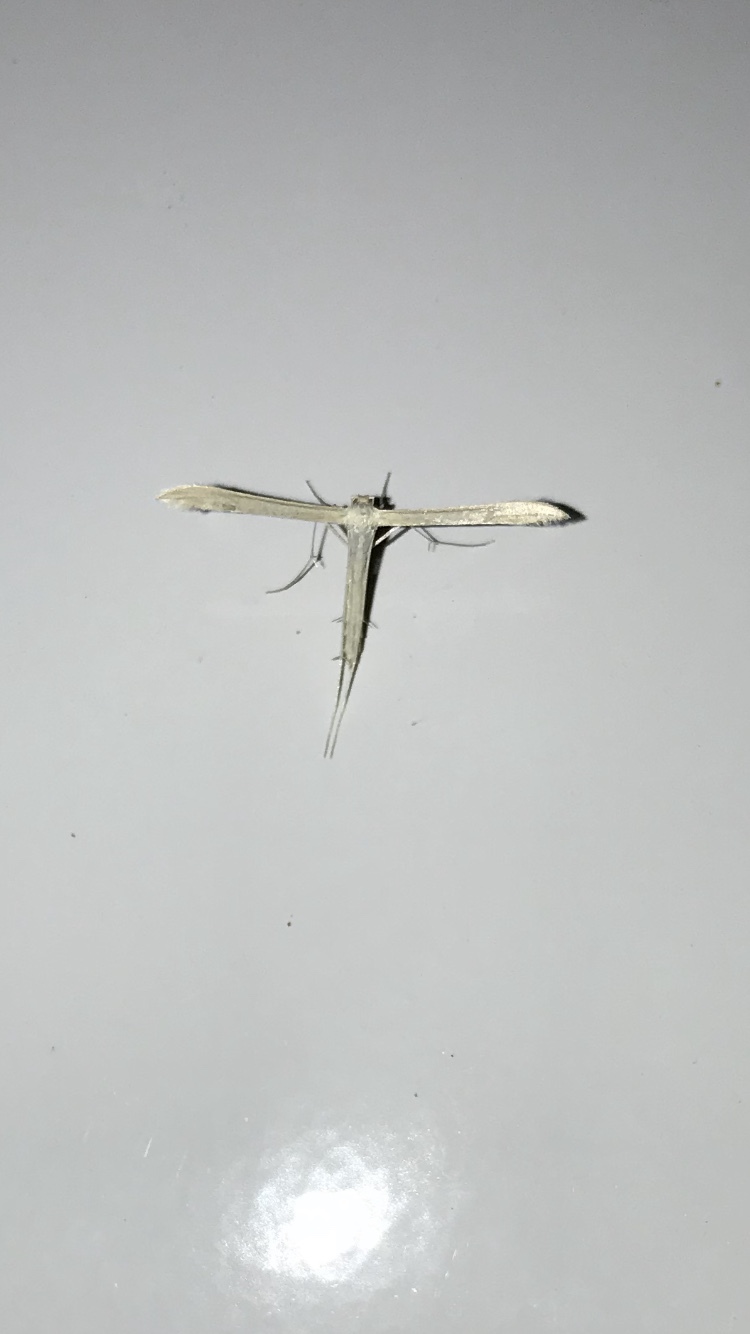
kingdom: Animalia
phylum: Arthropoda
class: Insecta
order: Lepidoptera
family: Pterophoridae
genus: Hellinsia
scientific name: Hellinsia unicolor
